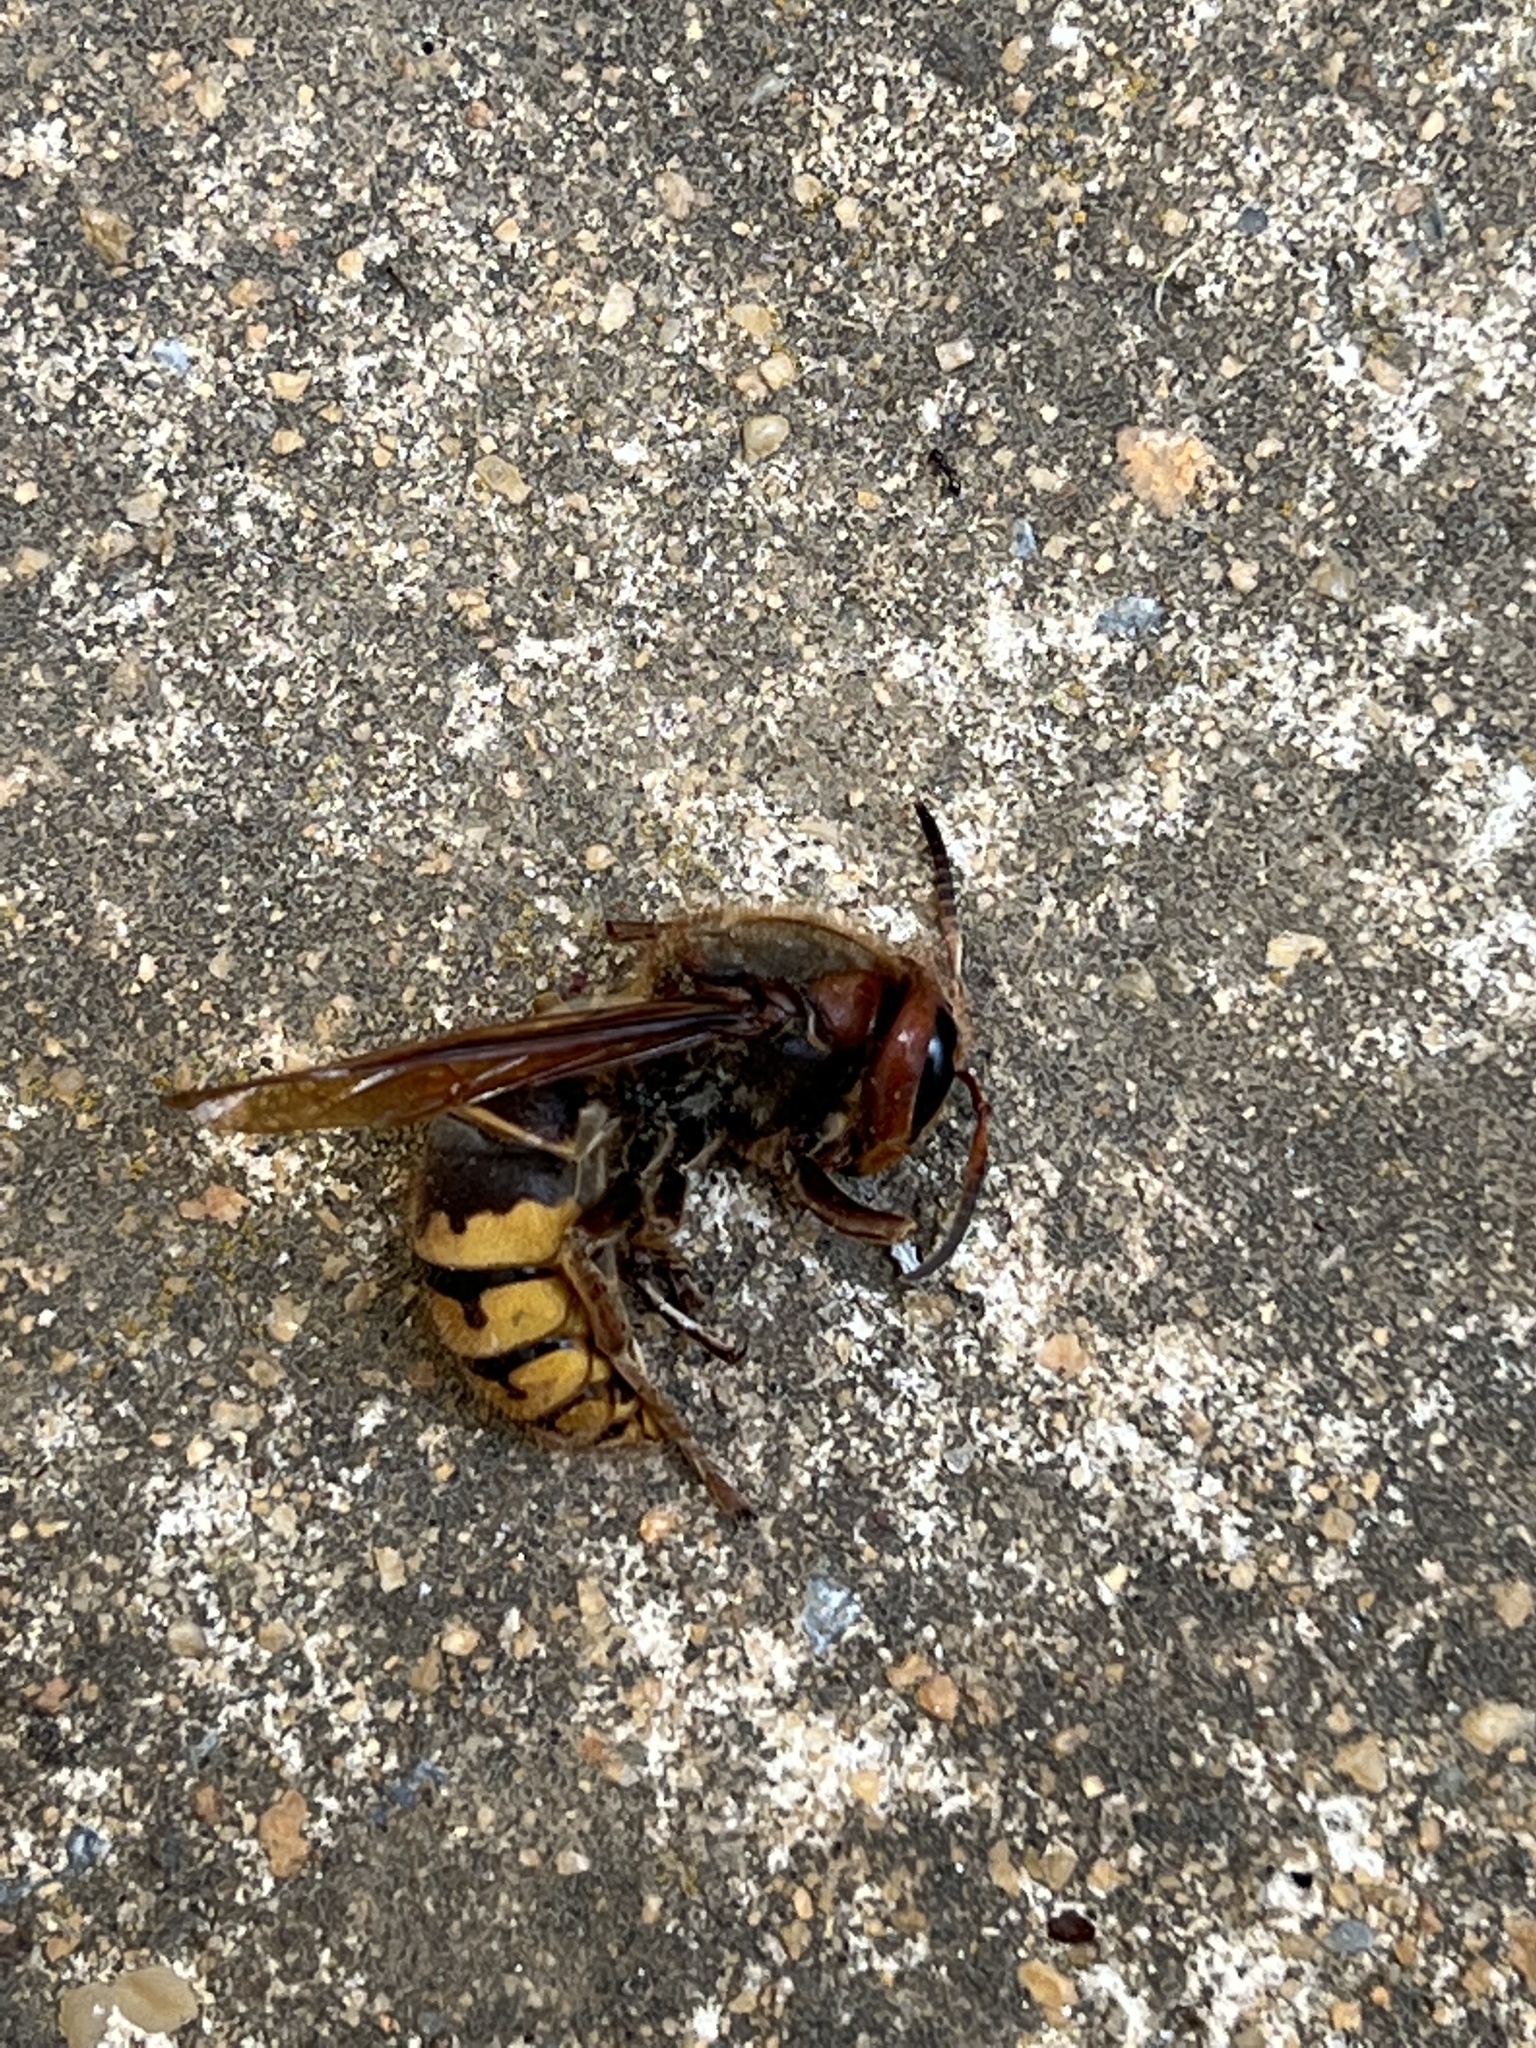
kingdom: Animalia
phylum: Arthropoda
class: Insecta
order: Hymenoptera
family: Vespidae
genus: Vespa
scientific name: Vespa crabro
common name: Hornet
